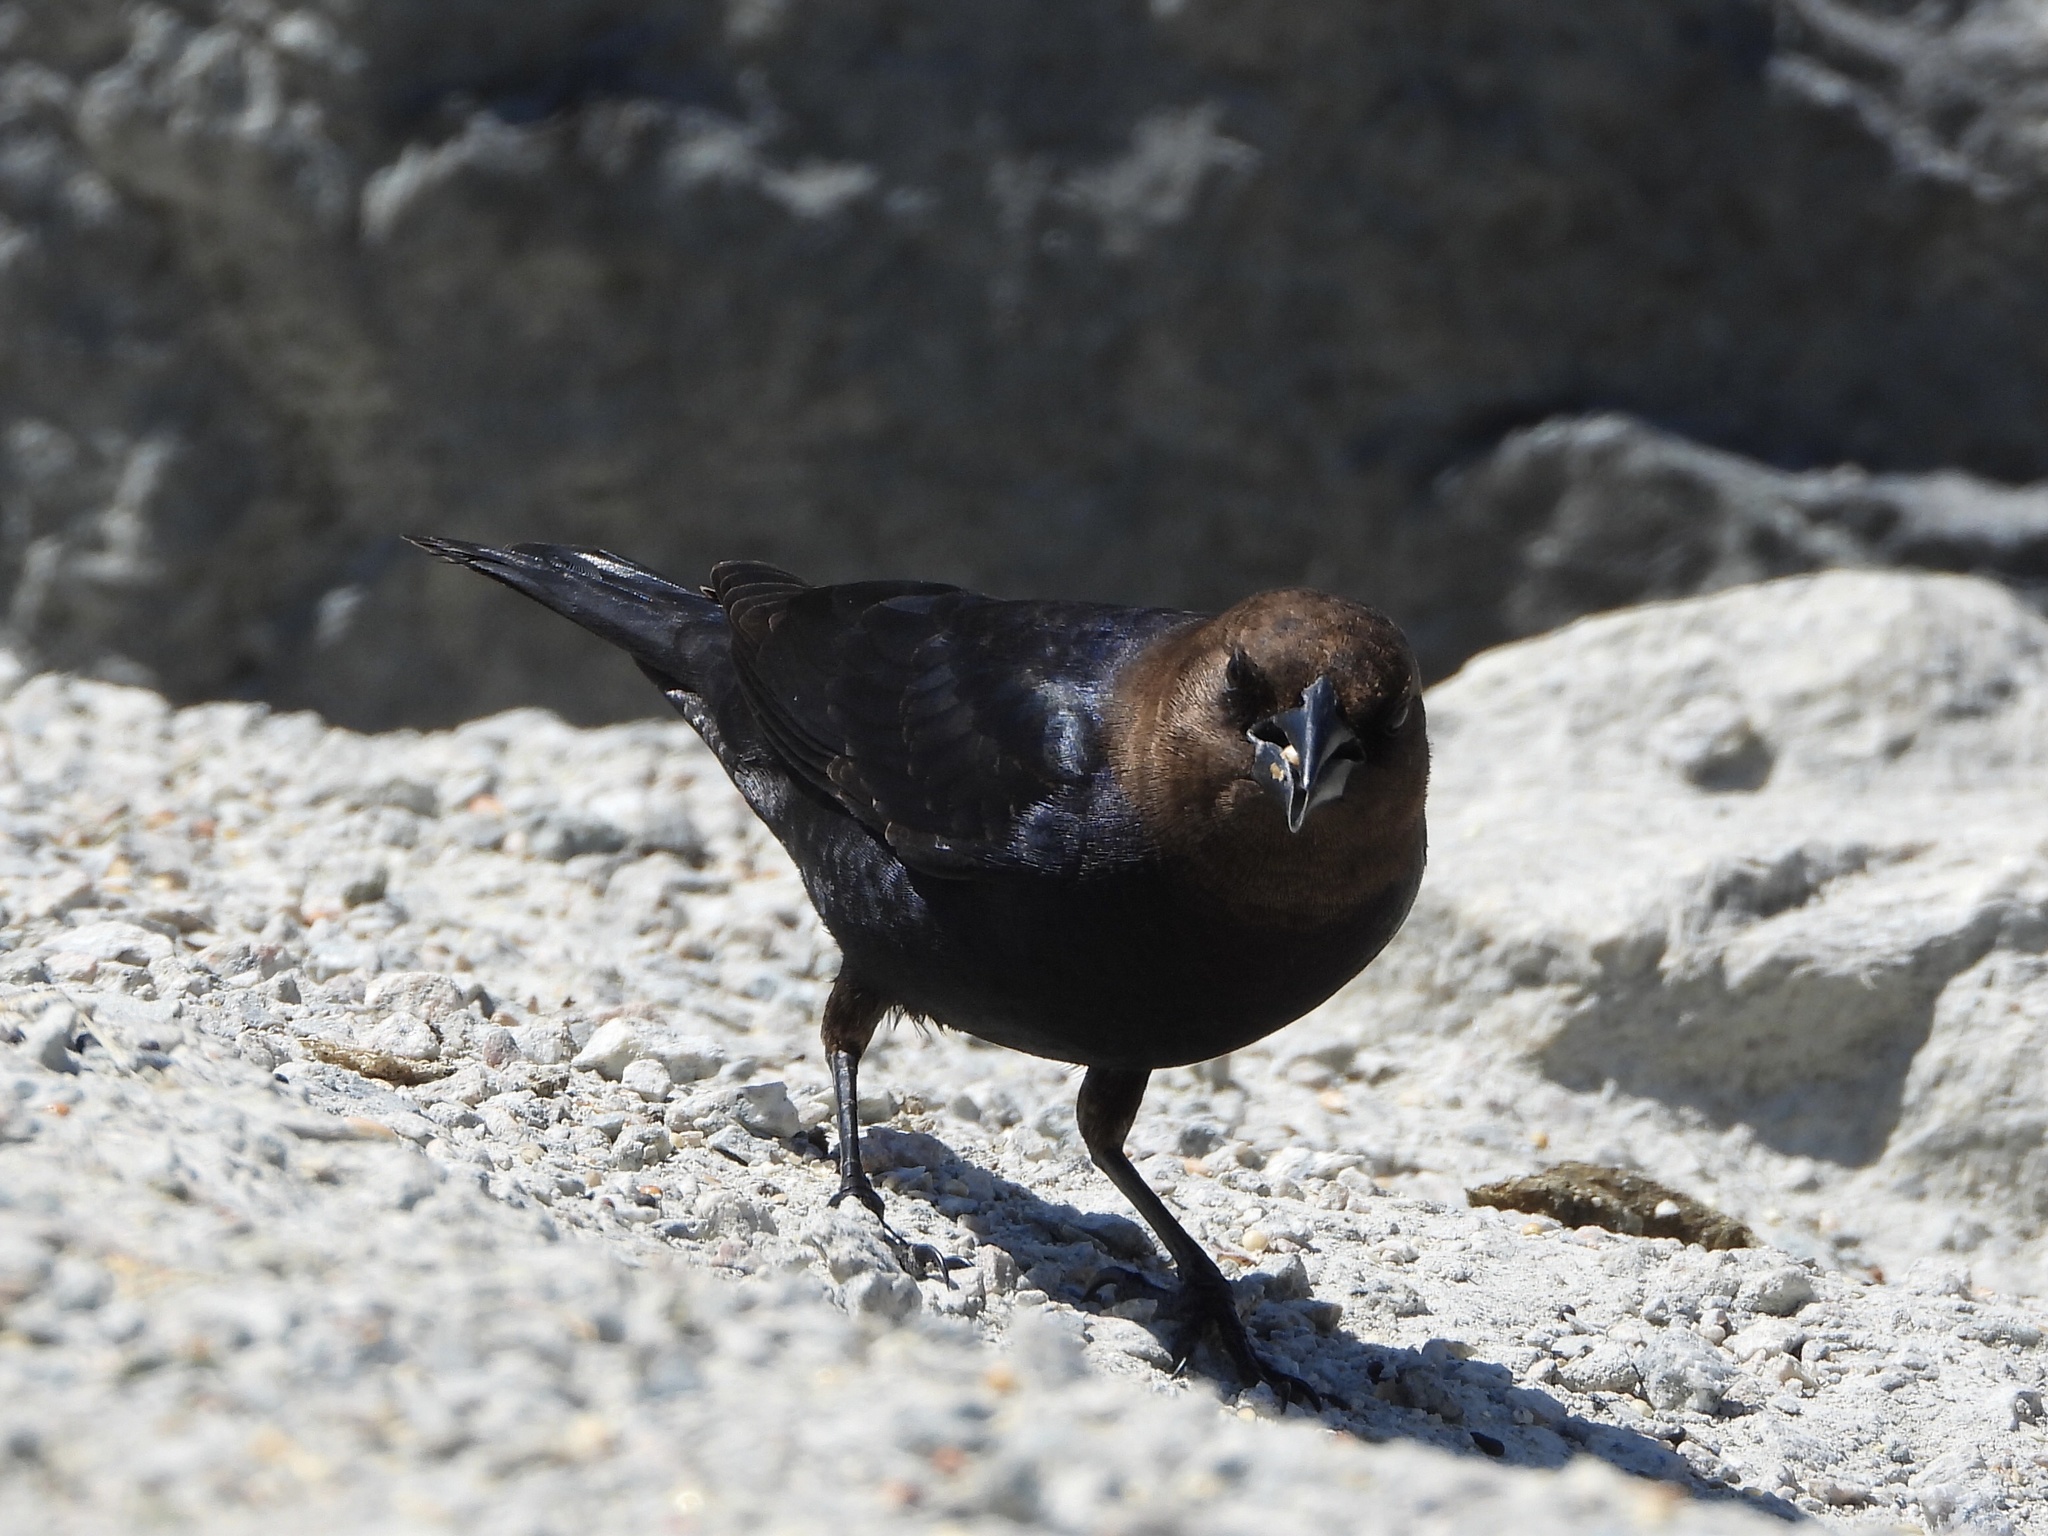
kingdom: Animalia
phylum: Chordata
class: Aves
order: Passeriformes
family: Icteridae
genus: Molothrus
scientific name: Molothrus ater
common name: Brown-headed cowbird
